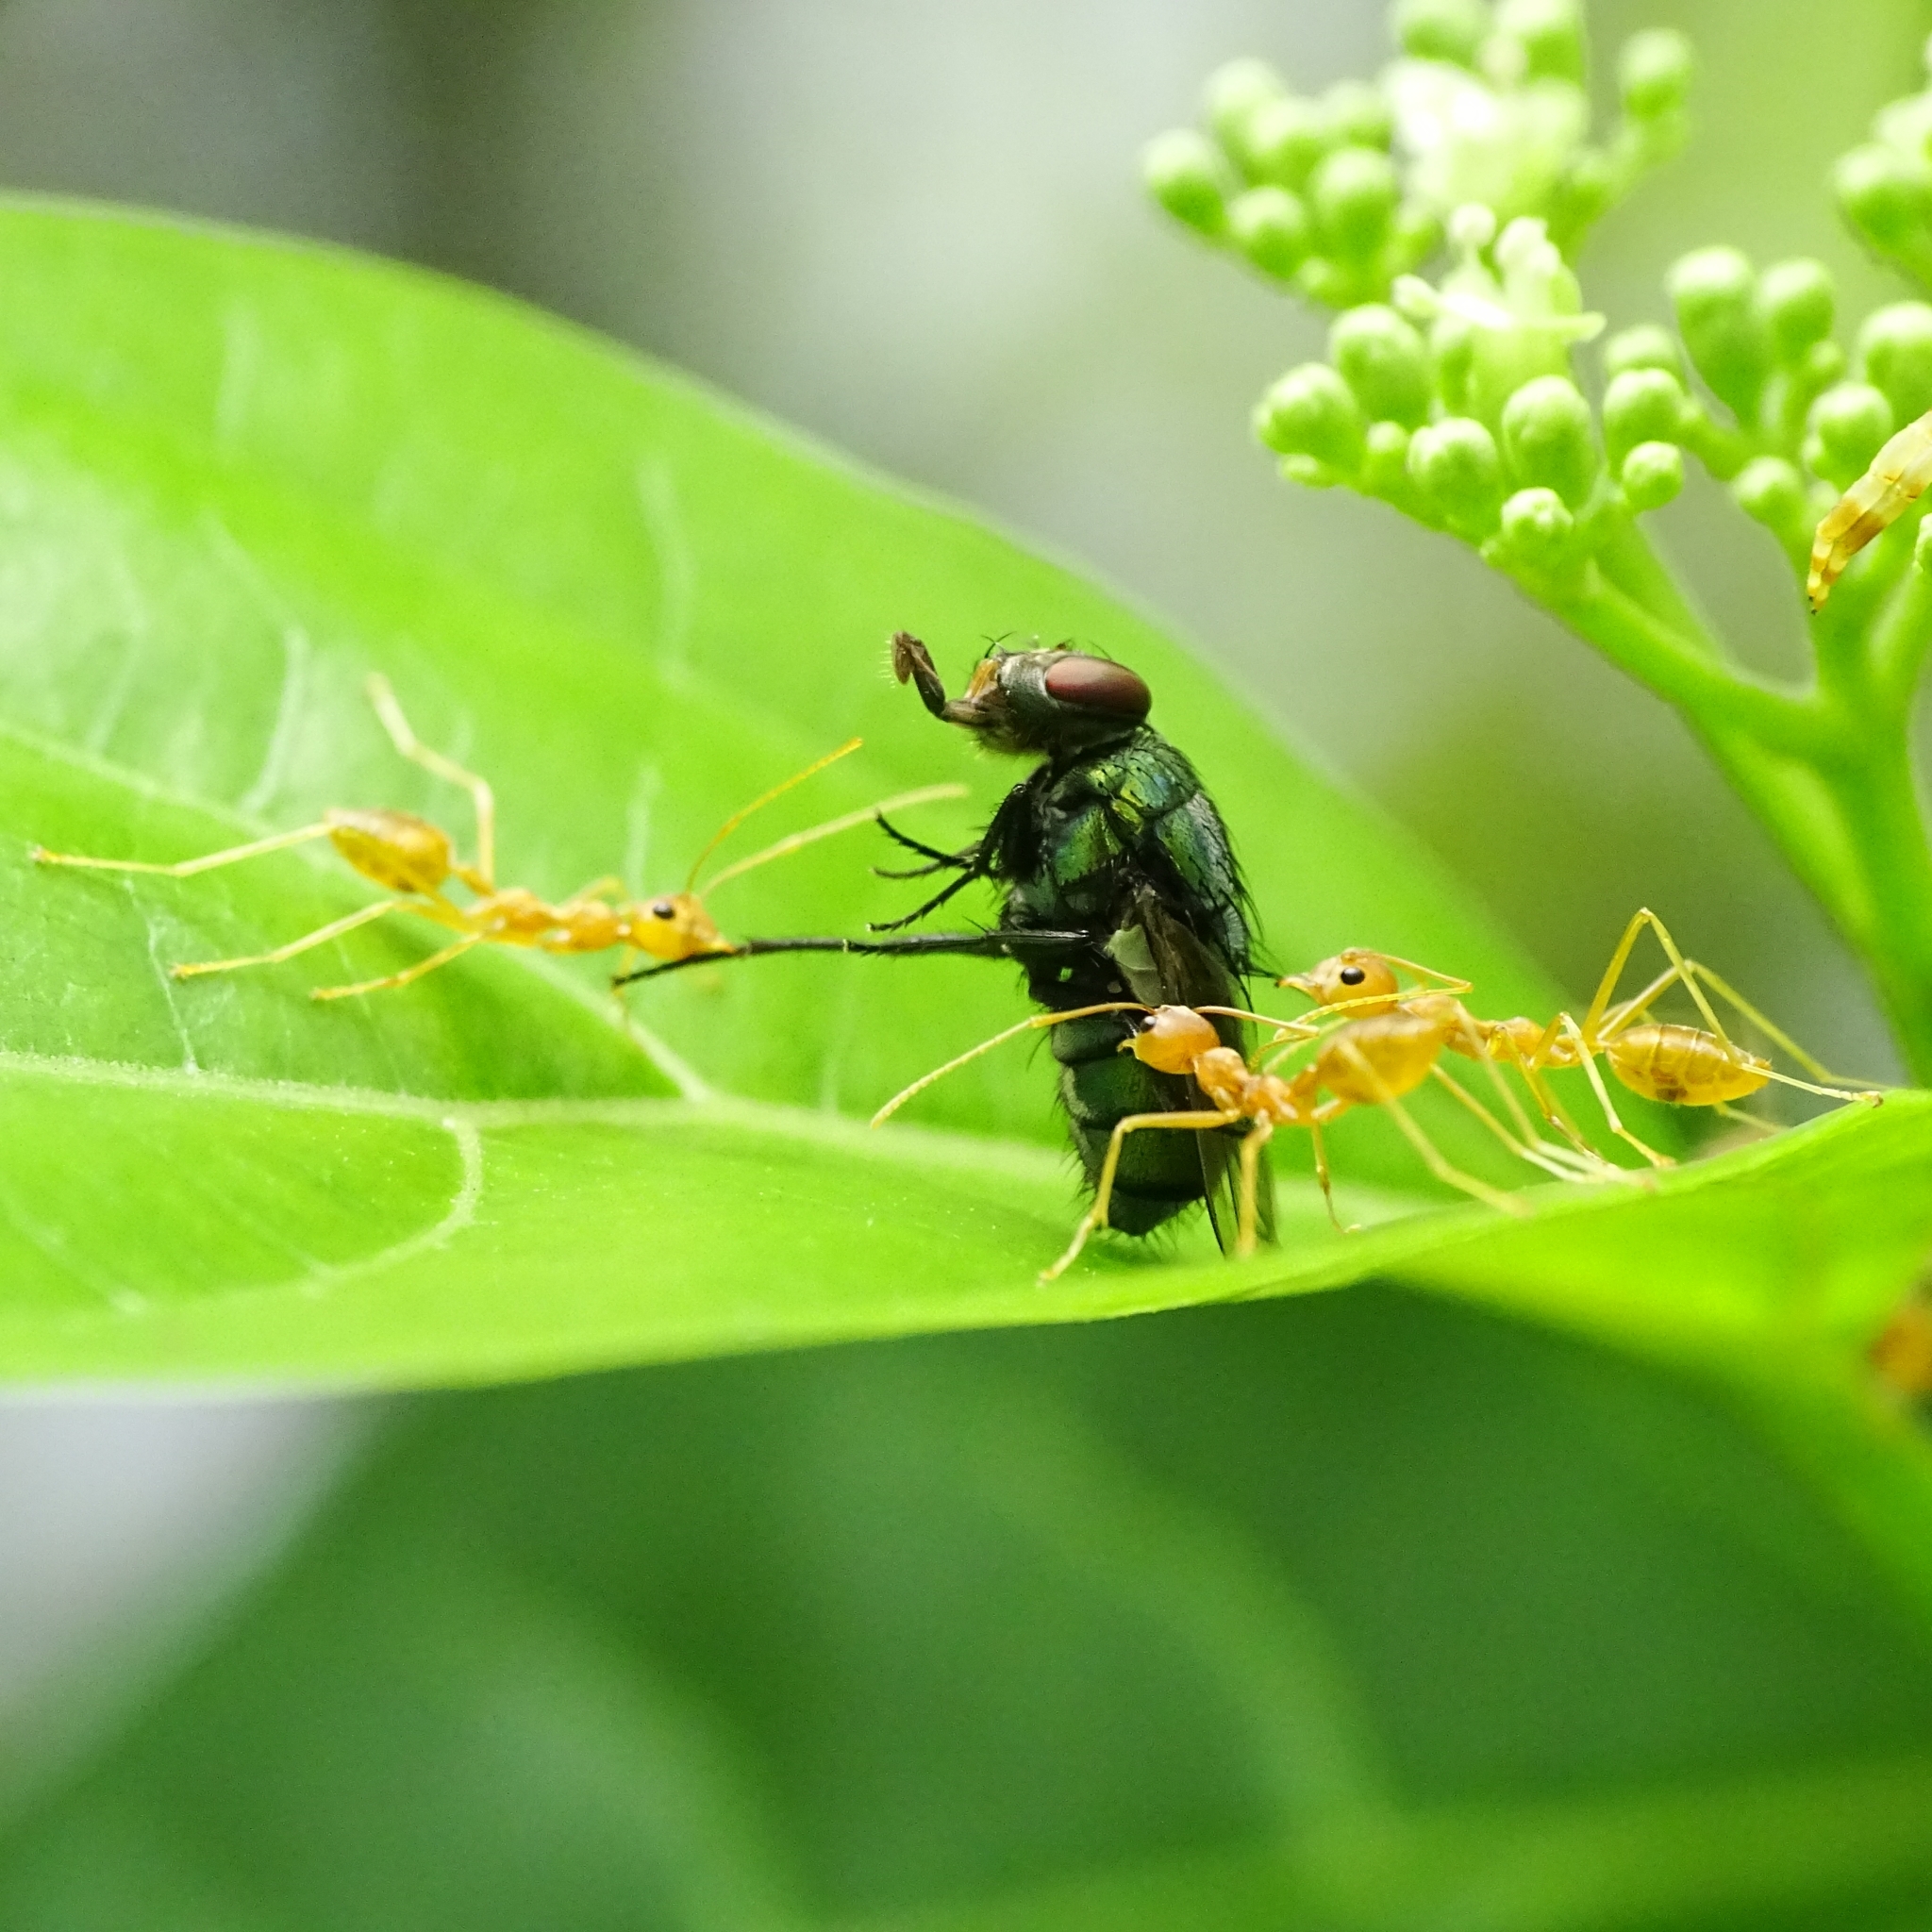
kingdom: Animalia
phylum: Arthropoda
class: Insecta
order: Hymenoptera
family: Formicidae
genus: Oecophylla
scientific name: Oecophylla smaragdina
